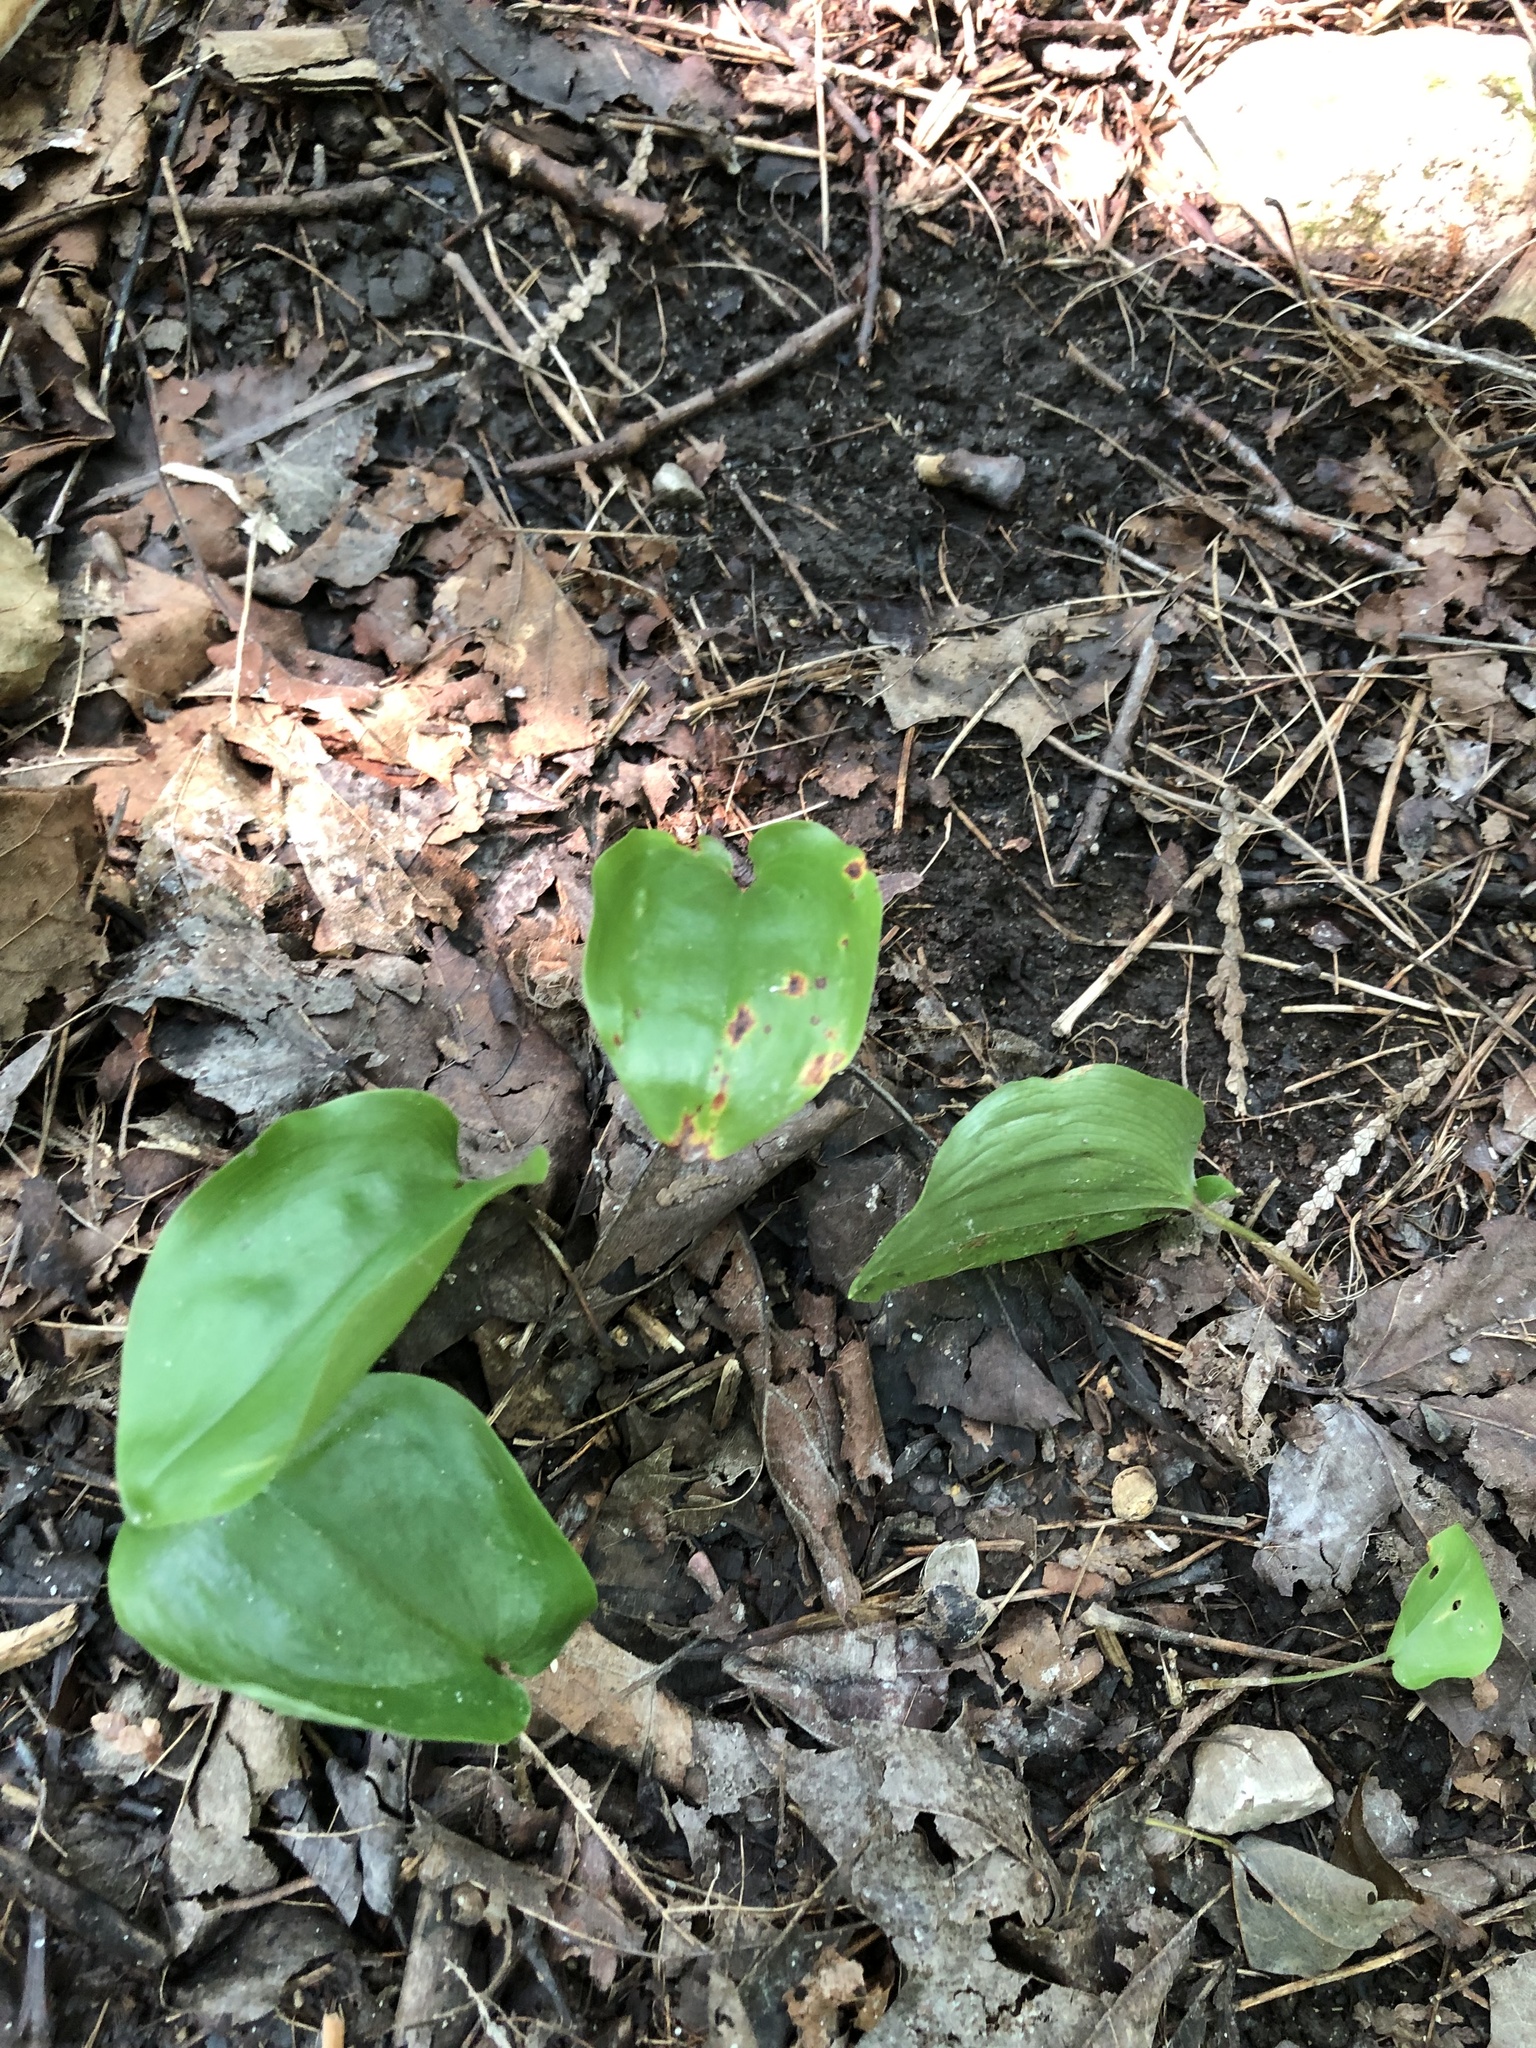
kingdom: Plantae
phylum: Tracheophyta
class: Liliopsida
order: Asparagales
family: Asparagaceae
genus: Maianthemum
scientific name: Maianthemum canadense
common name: False lily-of-the-valley
